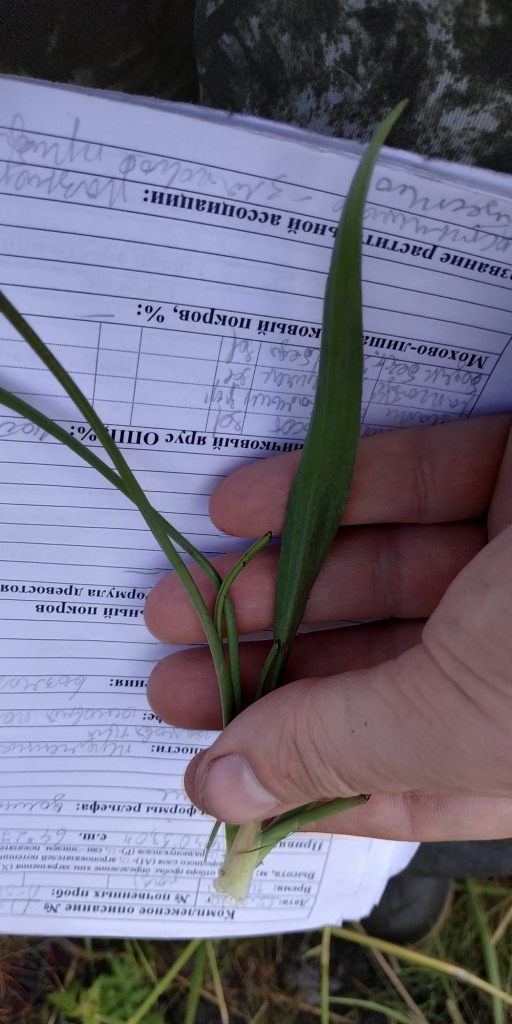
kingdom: Plantae
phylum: Tracheophyta
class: Liliopsida
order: Alismatales
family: Juncaginaceae
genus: Triglochin
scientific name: Triglochin maritima
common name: Sea arrowgrass
